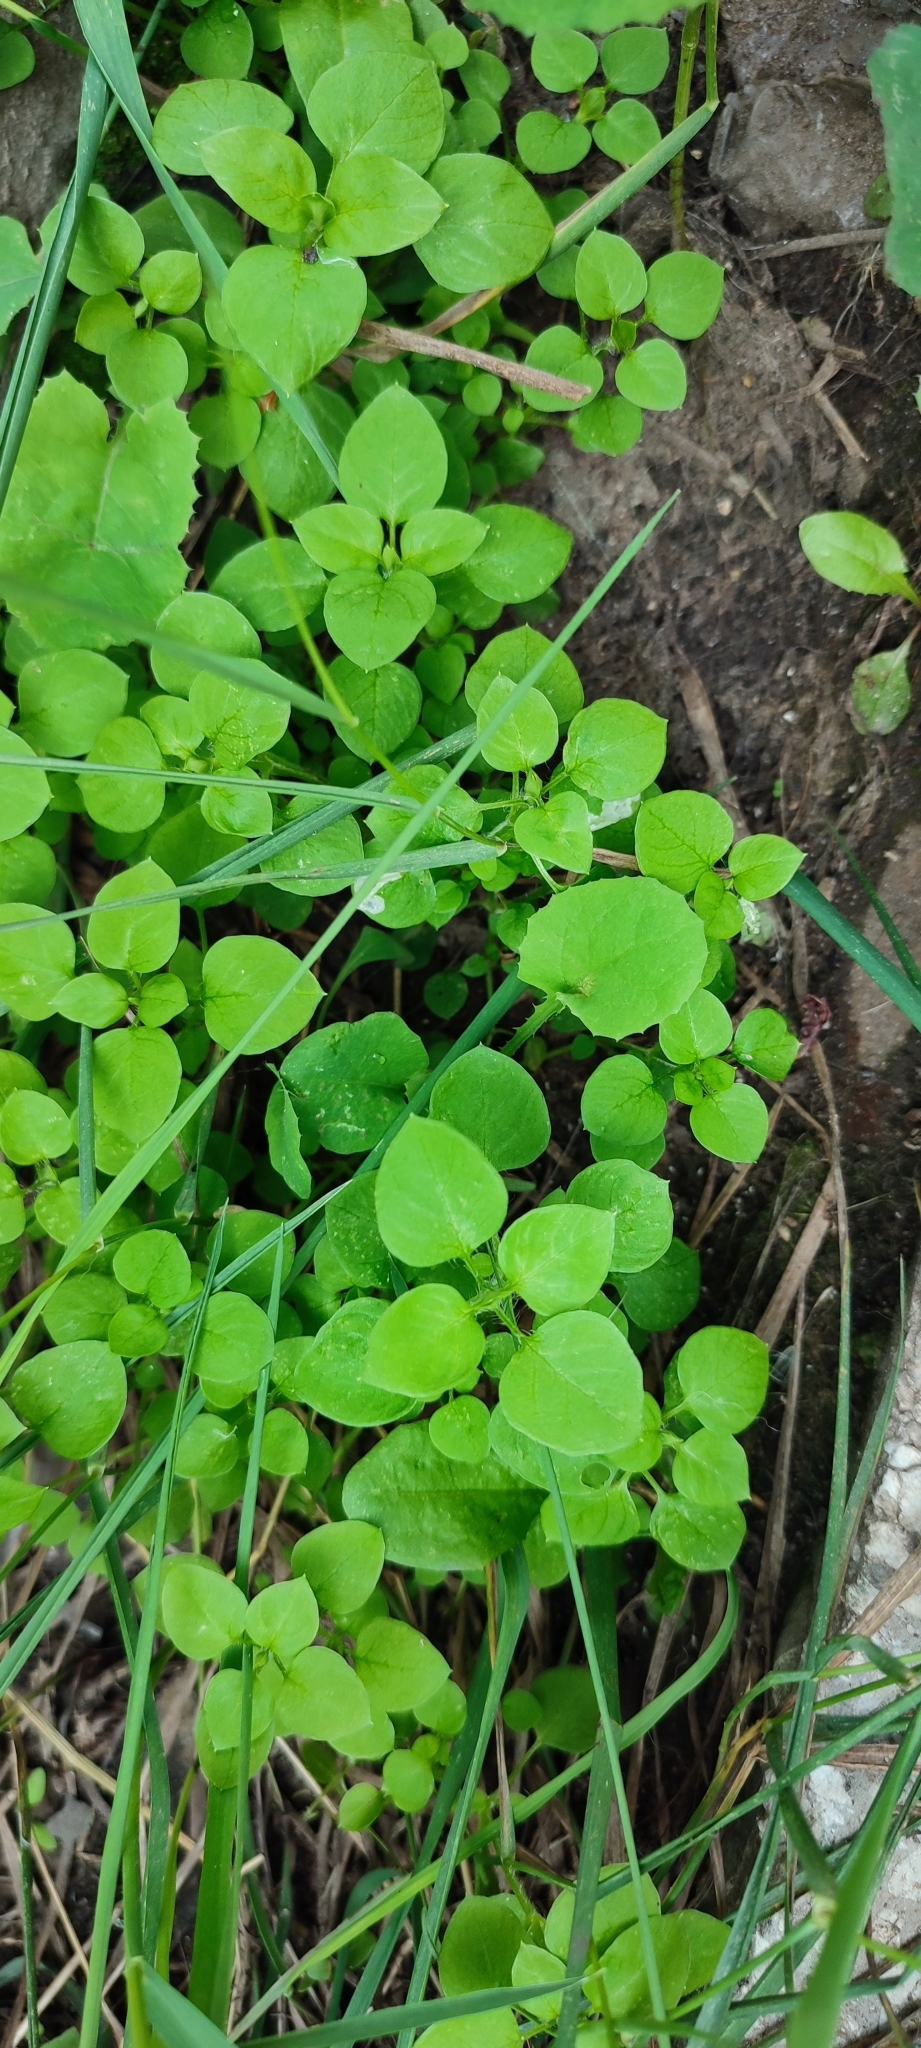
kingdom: Plantae
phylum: Tracheophyta
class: Magnoliopsida
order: Caryophyllales
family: Caryophyllaceae
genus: Stellaria
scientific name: Stellaria media
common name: Common chickweed
